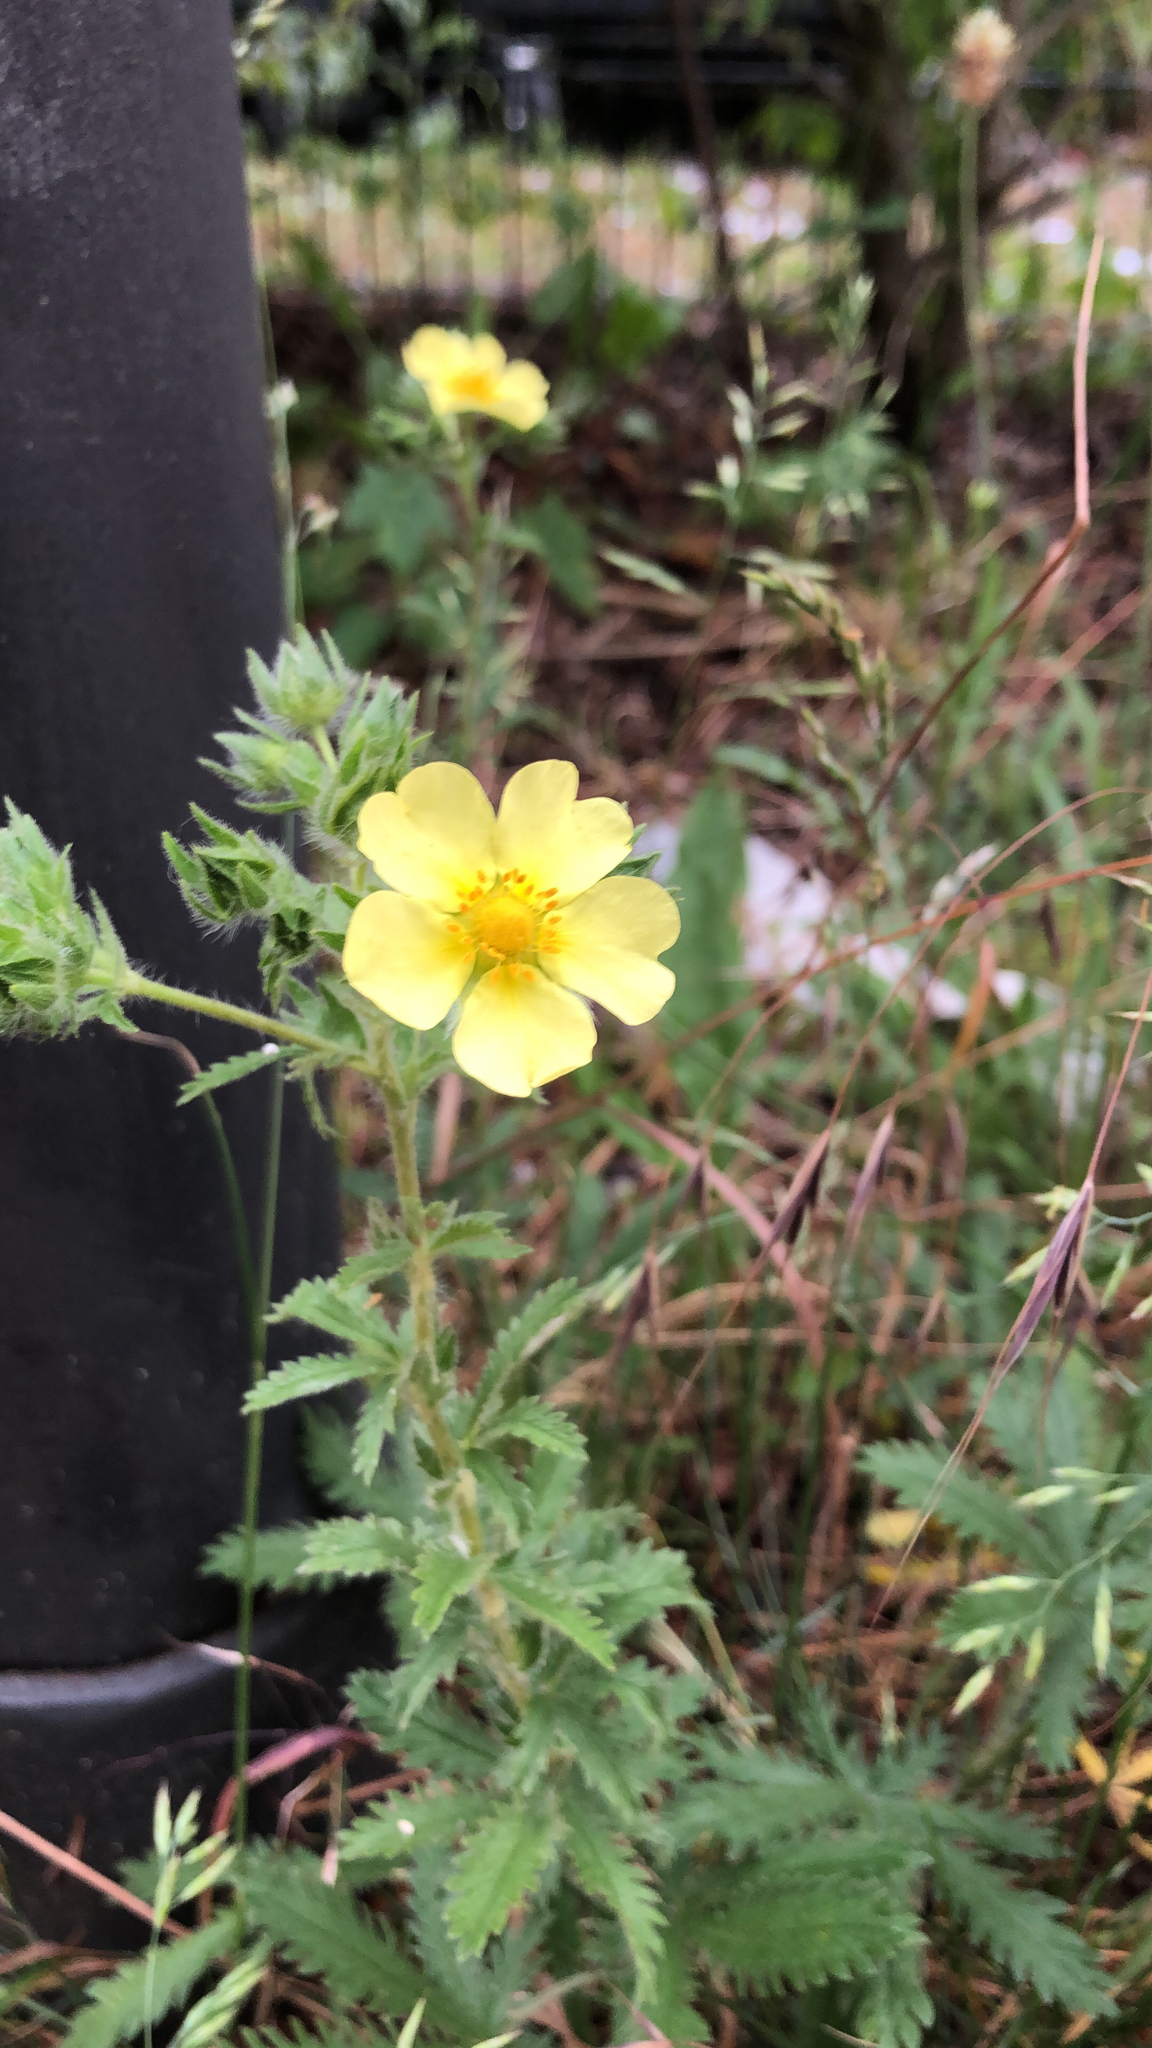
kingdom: Plantae
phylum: Tracheophyta
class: Magnoliopsida
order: Rosales
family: Rosaceae
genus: Potentilla
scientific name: Potentilla recta
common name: Sulphur cinquefoil
